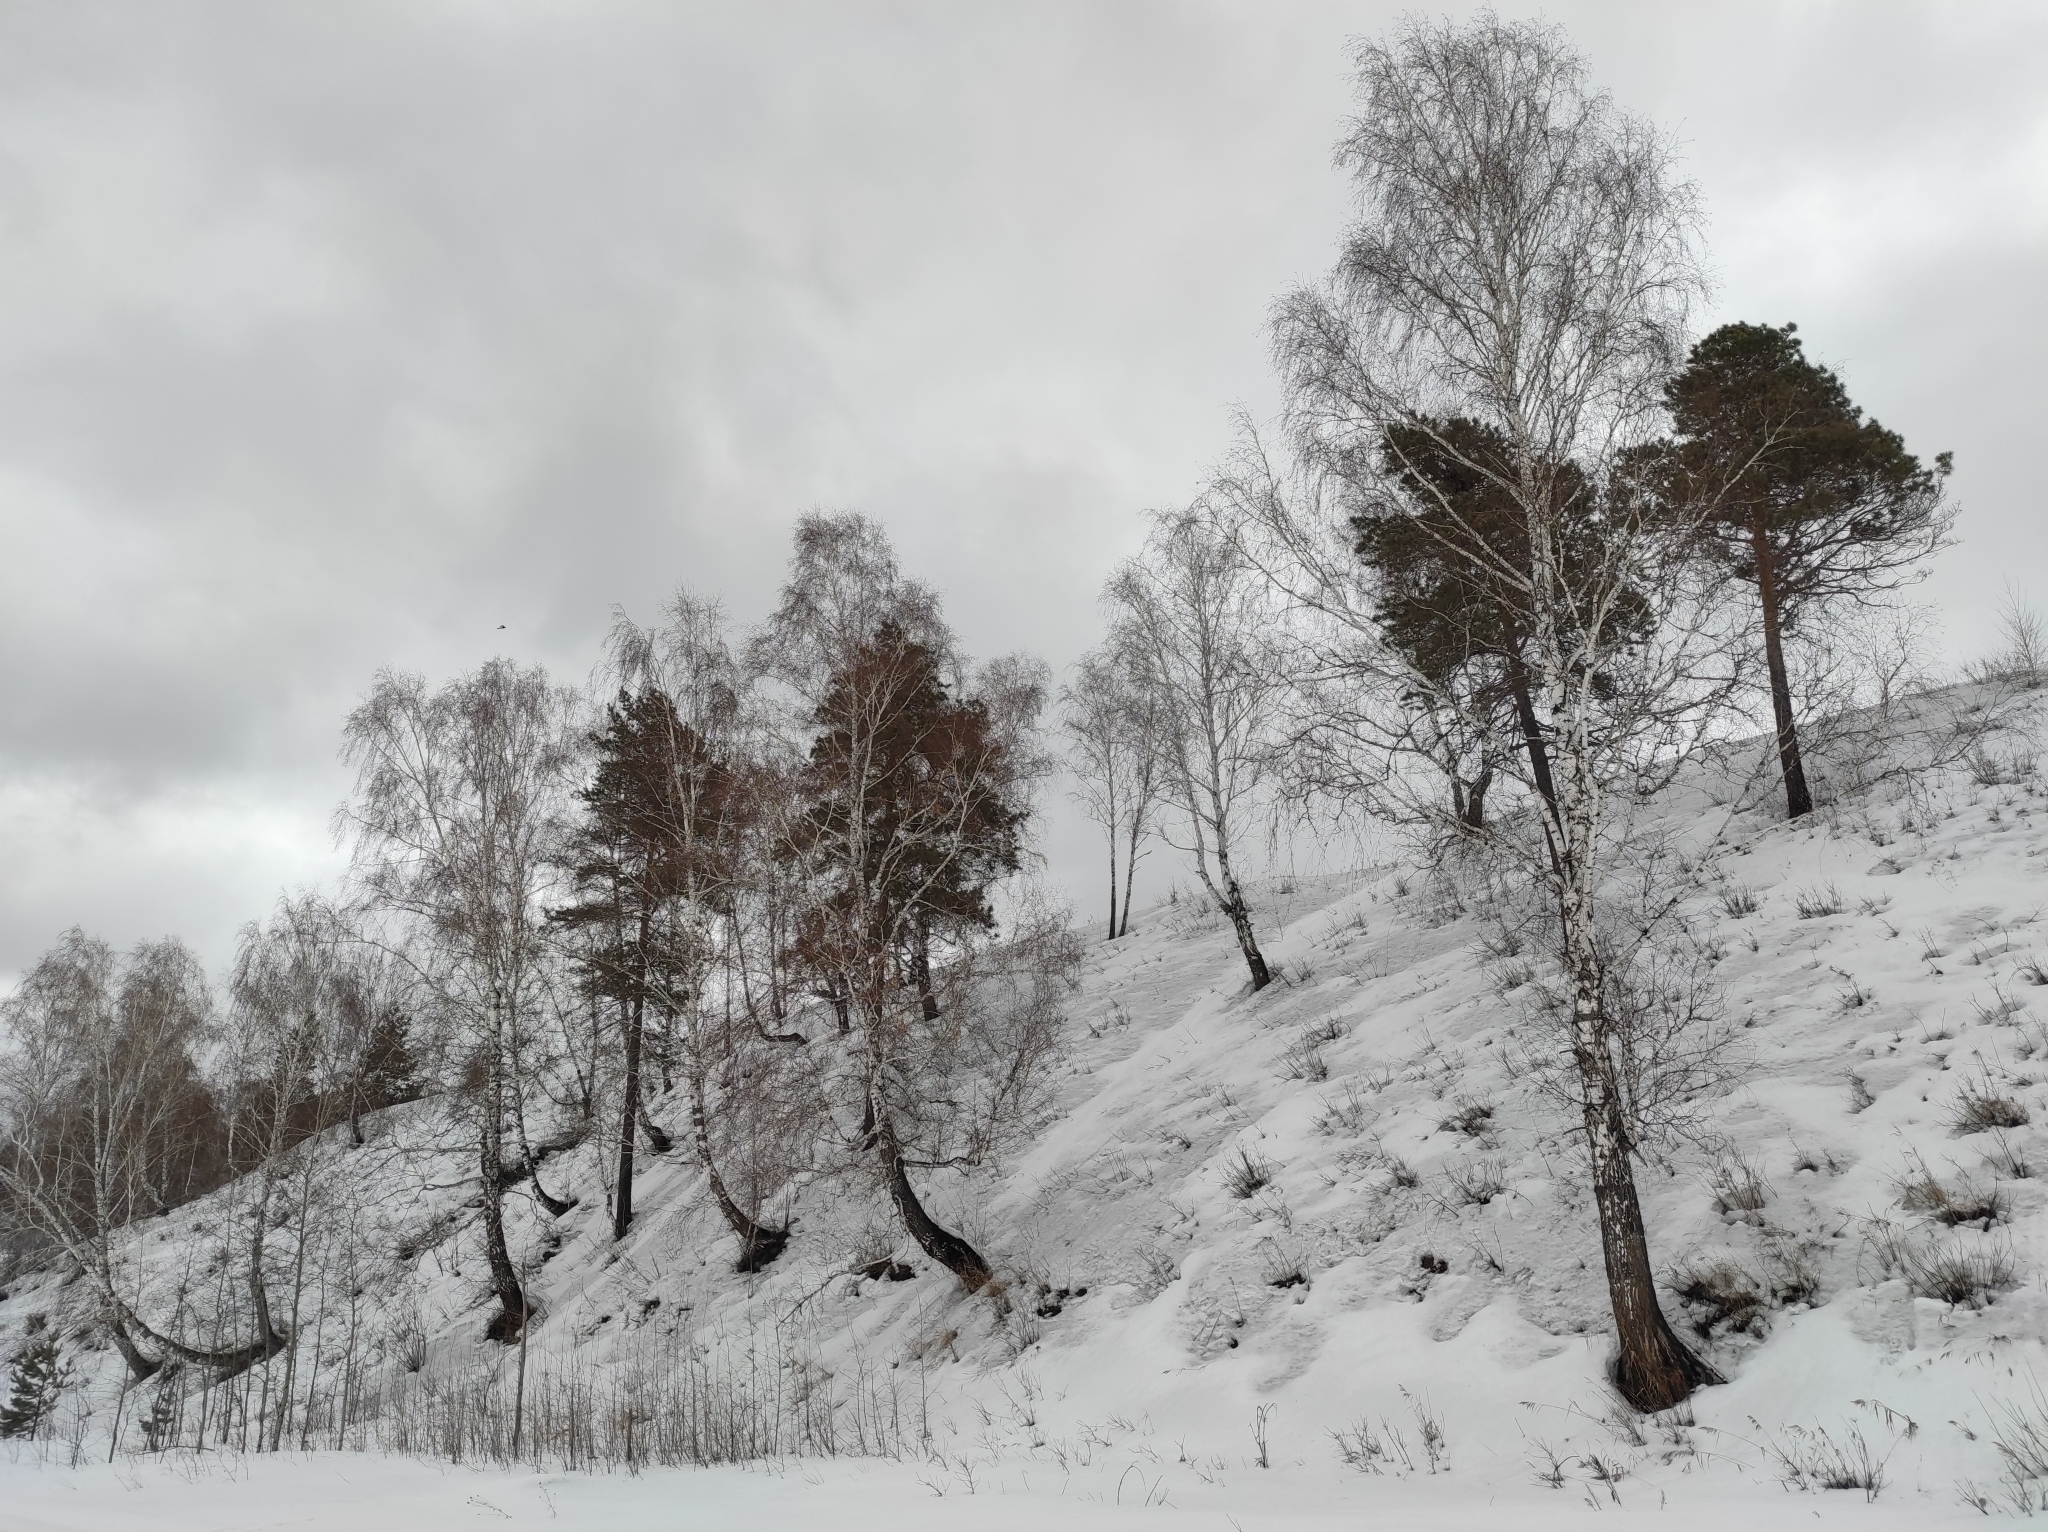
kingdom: Plantae
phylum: Tracheophyta
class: Pinopsida
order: Pinales
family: Pinaceae
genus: Pinus
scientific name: Pinus sylvestris
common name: Scots pine
